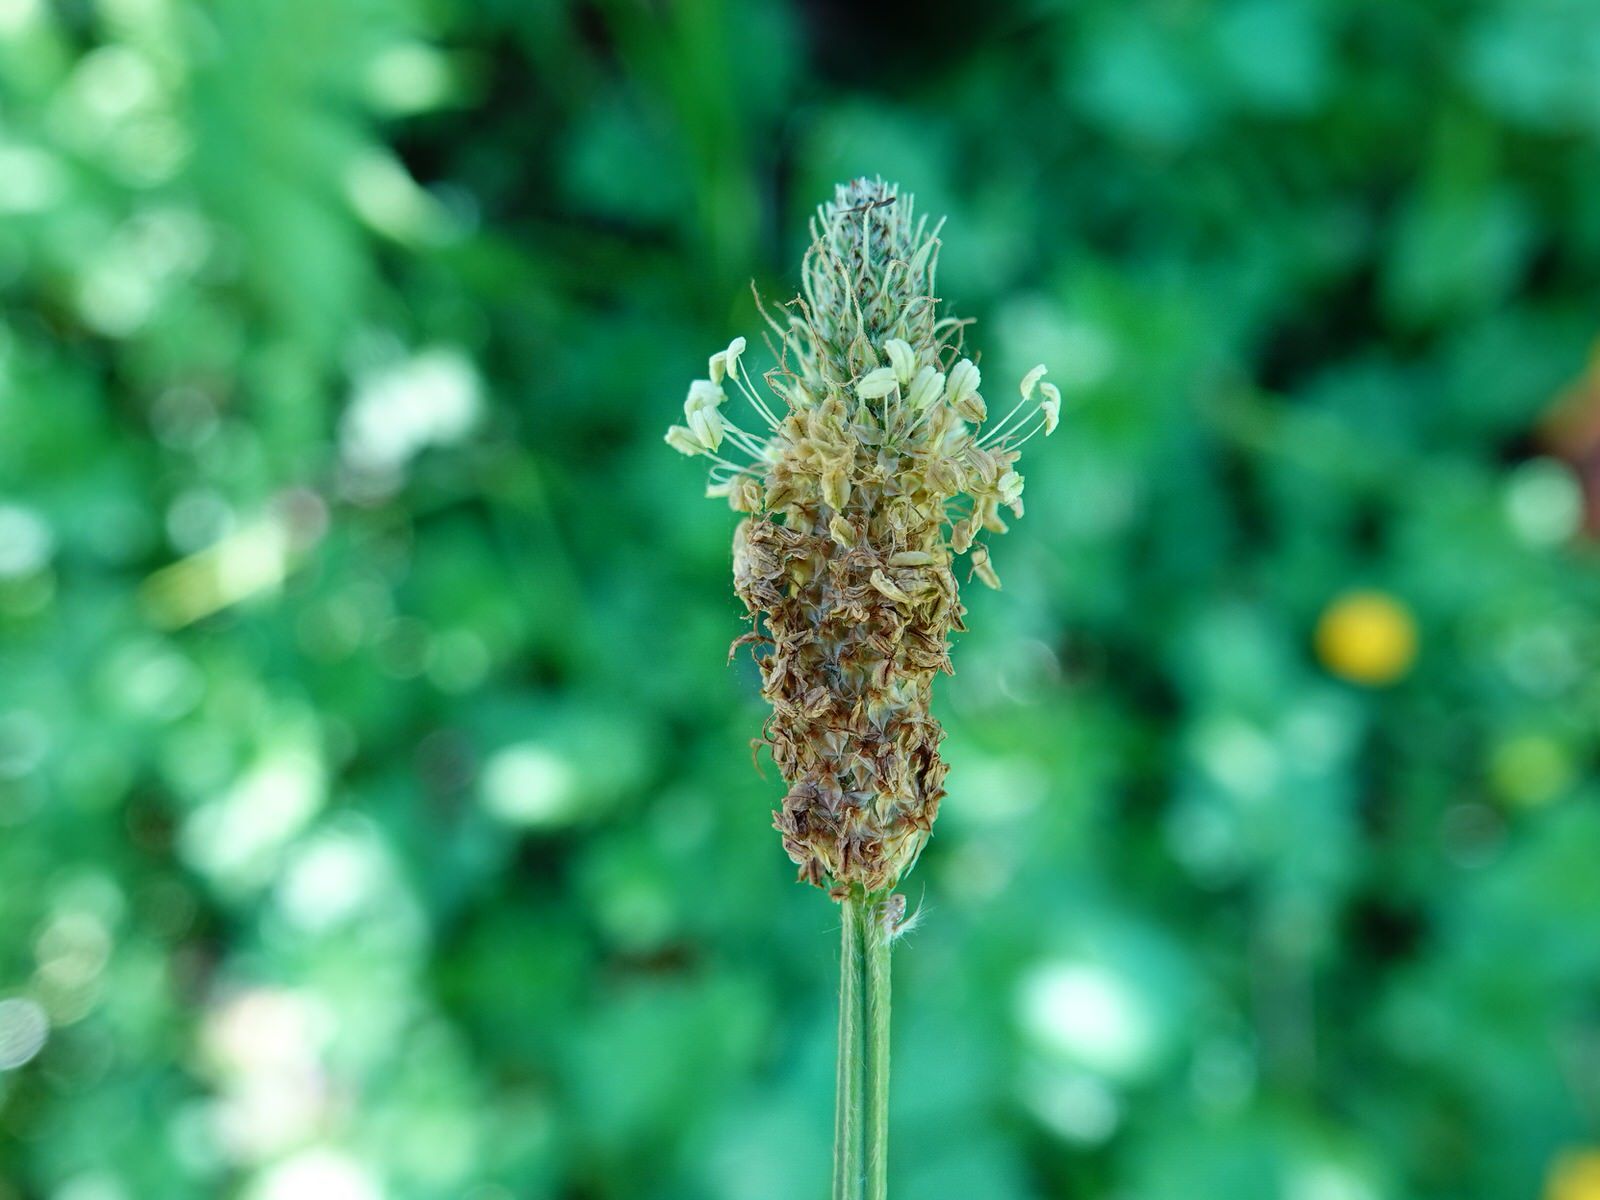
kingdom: Plantae
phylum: Tracheophyta
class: Magnoliopsida
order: Lamiales
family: Plantaginaceae
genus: Plantago
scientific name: Plantago lanceolata
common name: Ribwort plantain
